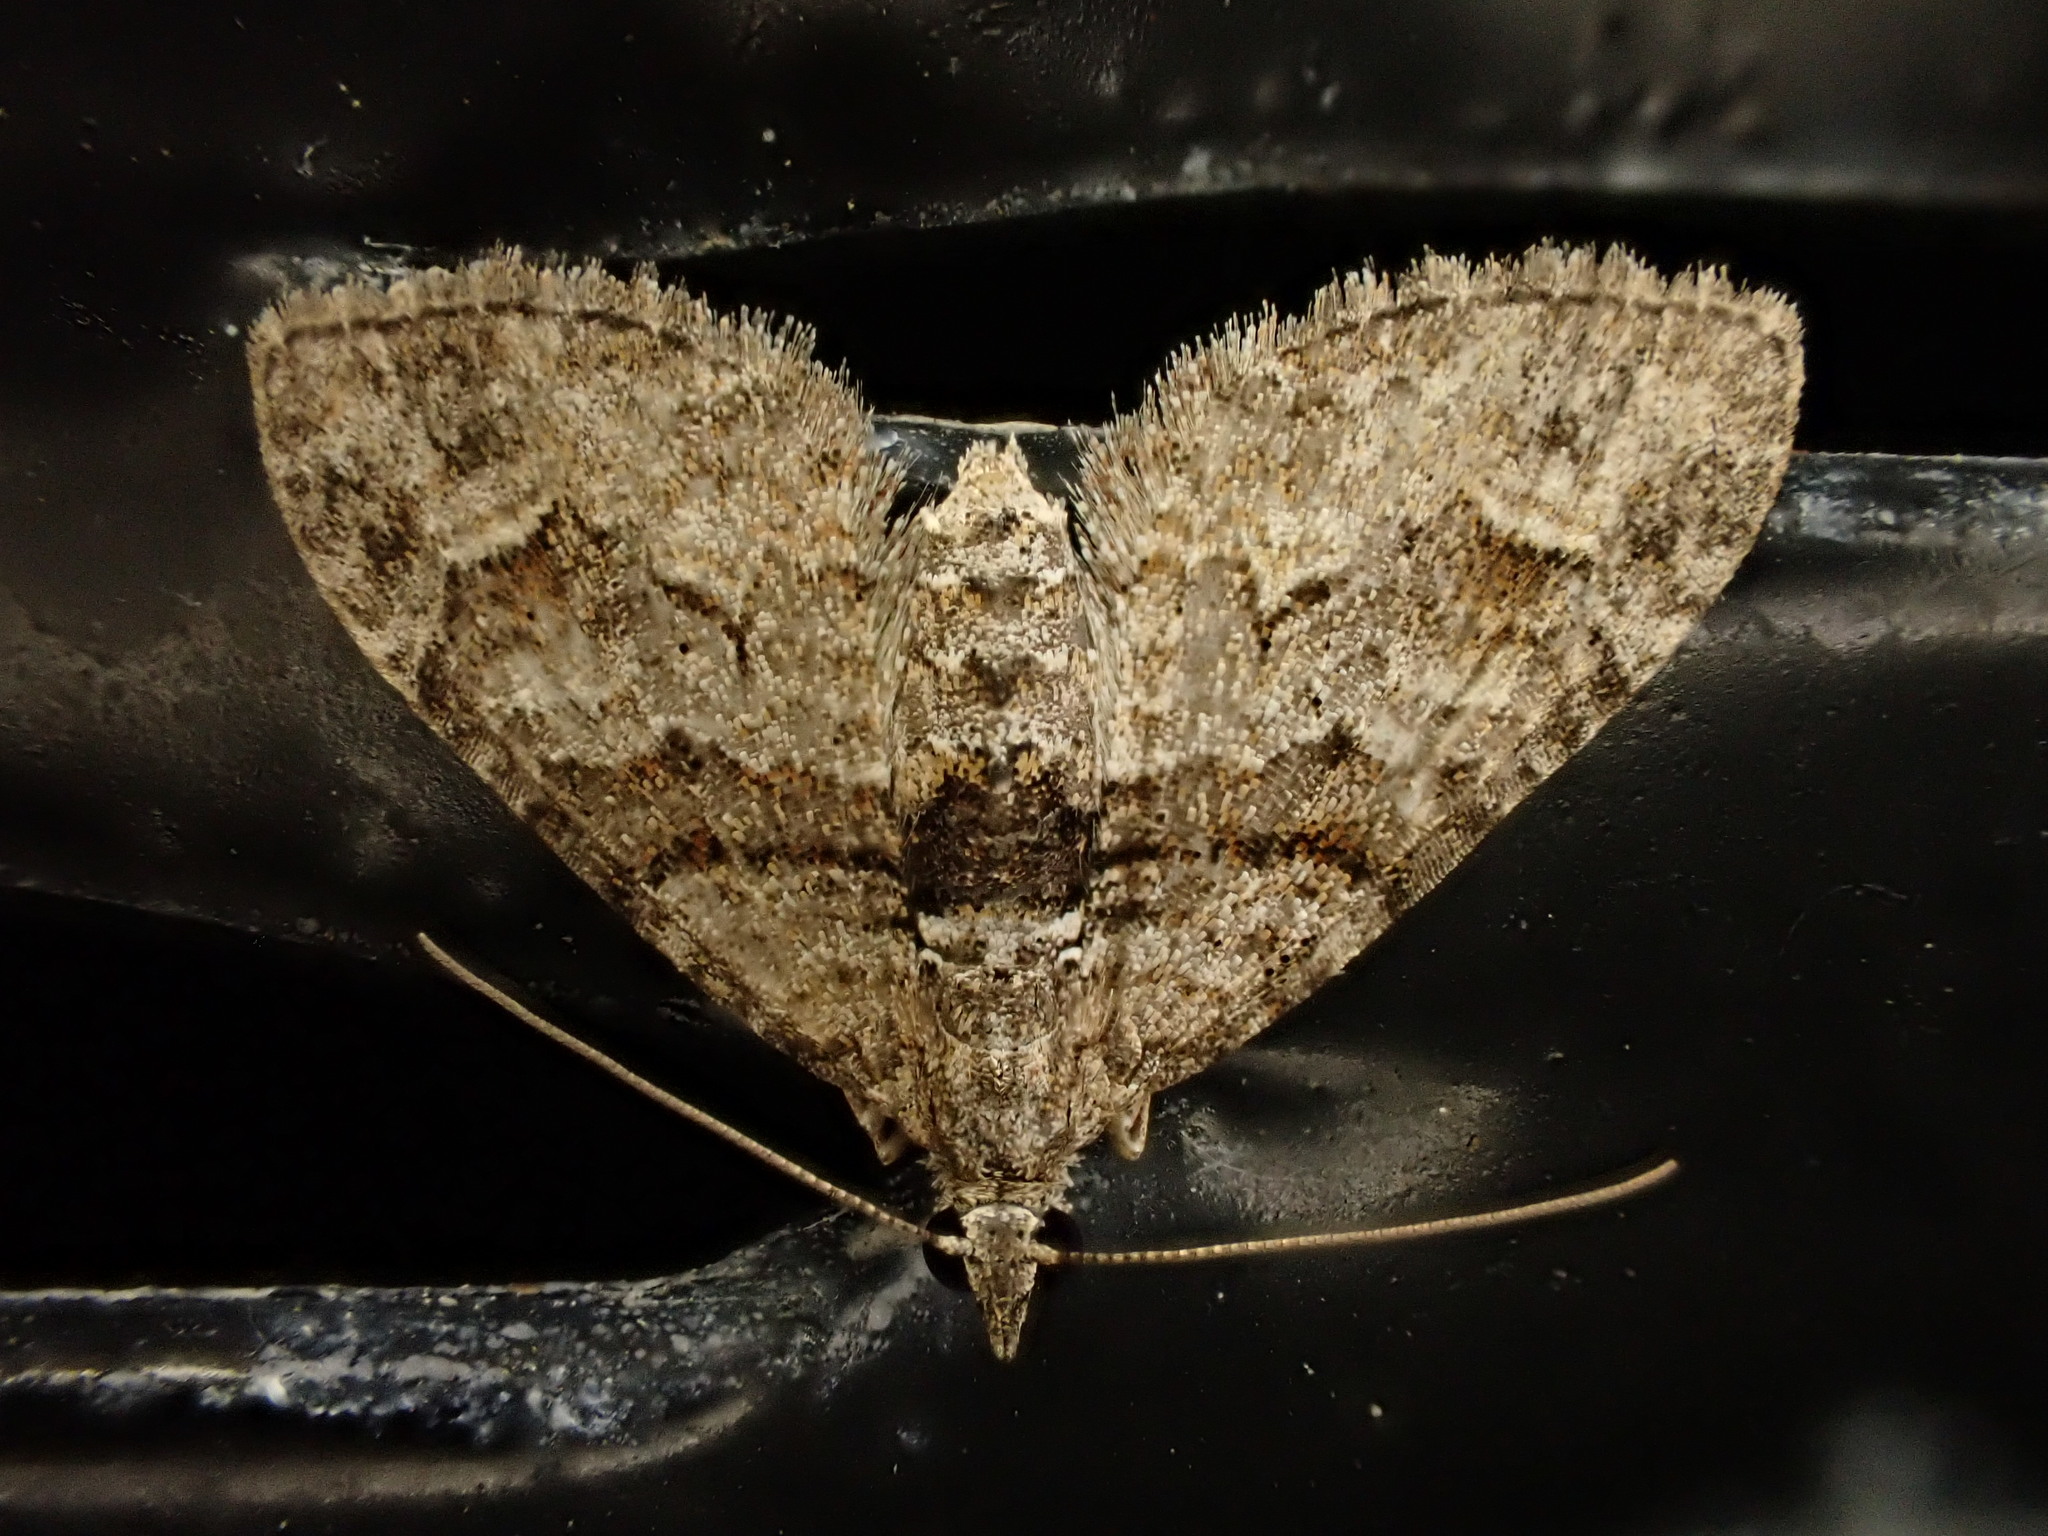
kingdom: Animalia
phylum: Arthropoda
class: Insecta
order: Lepidoptera
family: Geometridae
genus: Phrissogonus
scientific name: Phrissogonus laticostata
